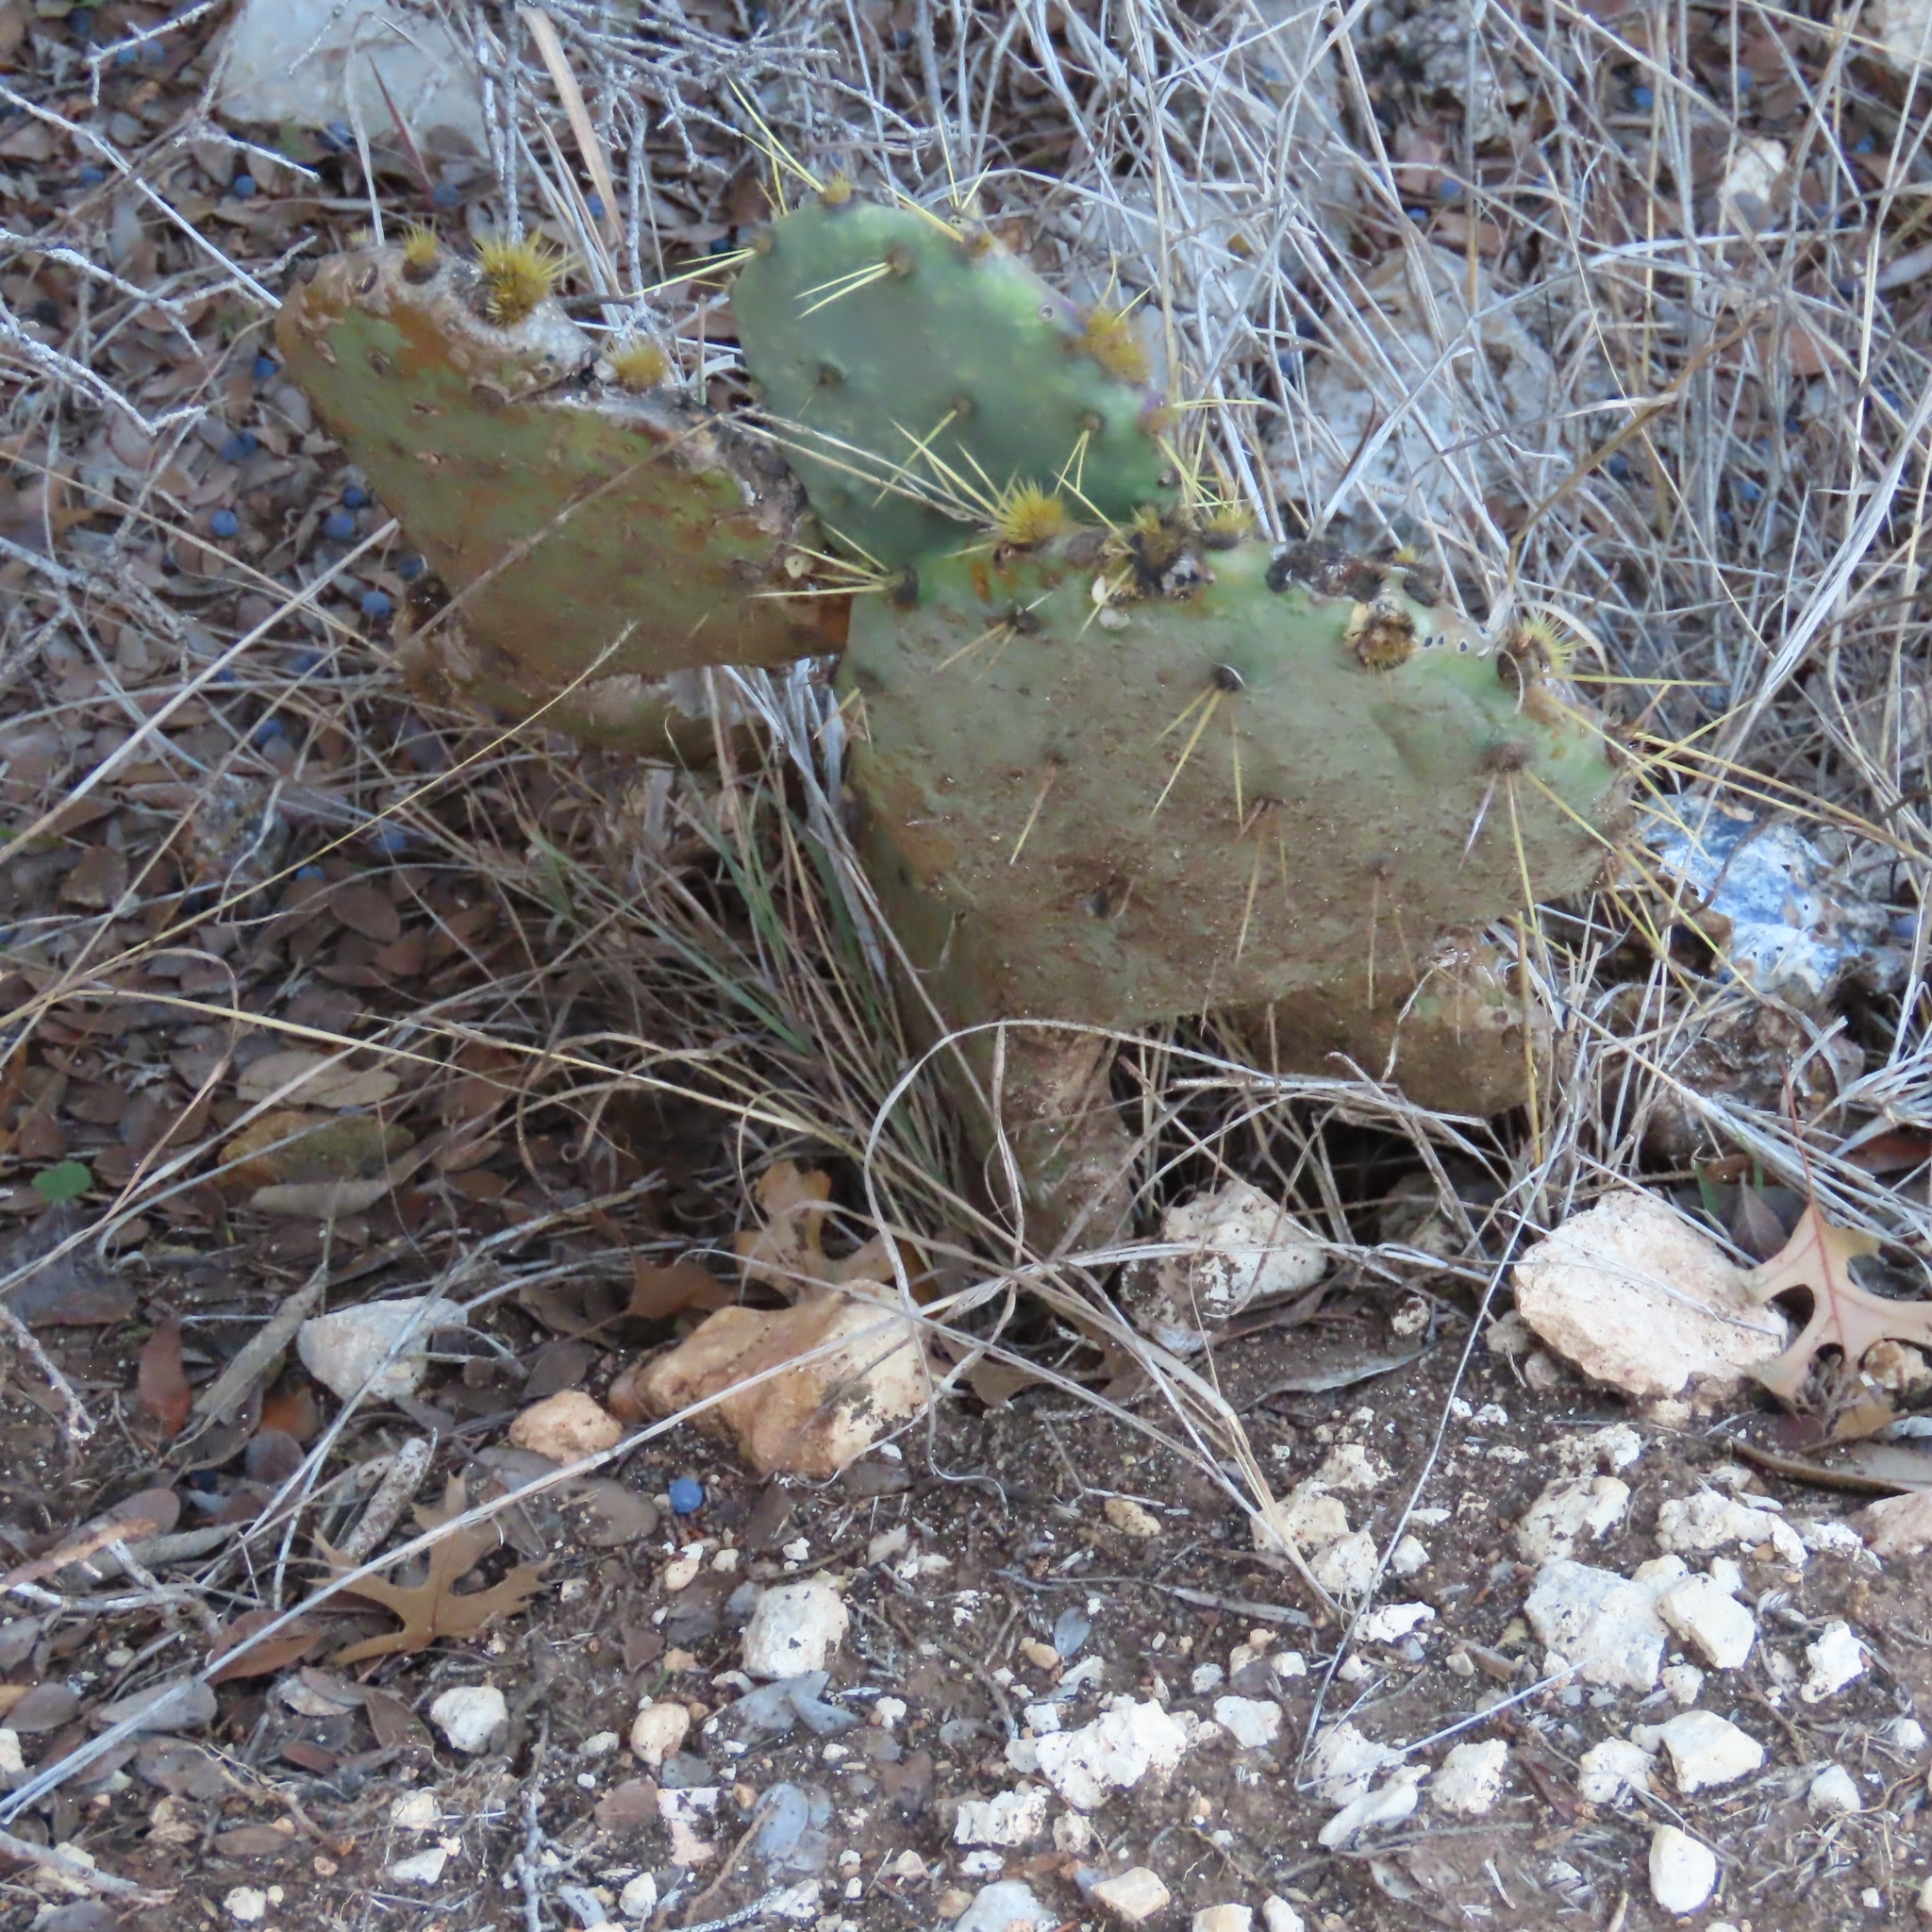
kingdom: Plantae
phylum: Tracheophyta
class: Magnoliopsida
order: Caryophyllales
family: Cactaceae
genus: Opuntia
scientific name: Opuntia engelmannii
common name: Cactus-apple
